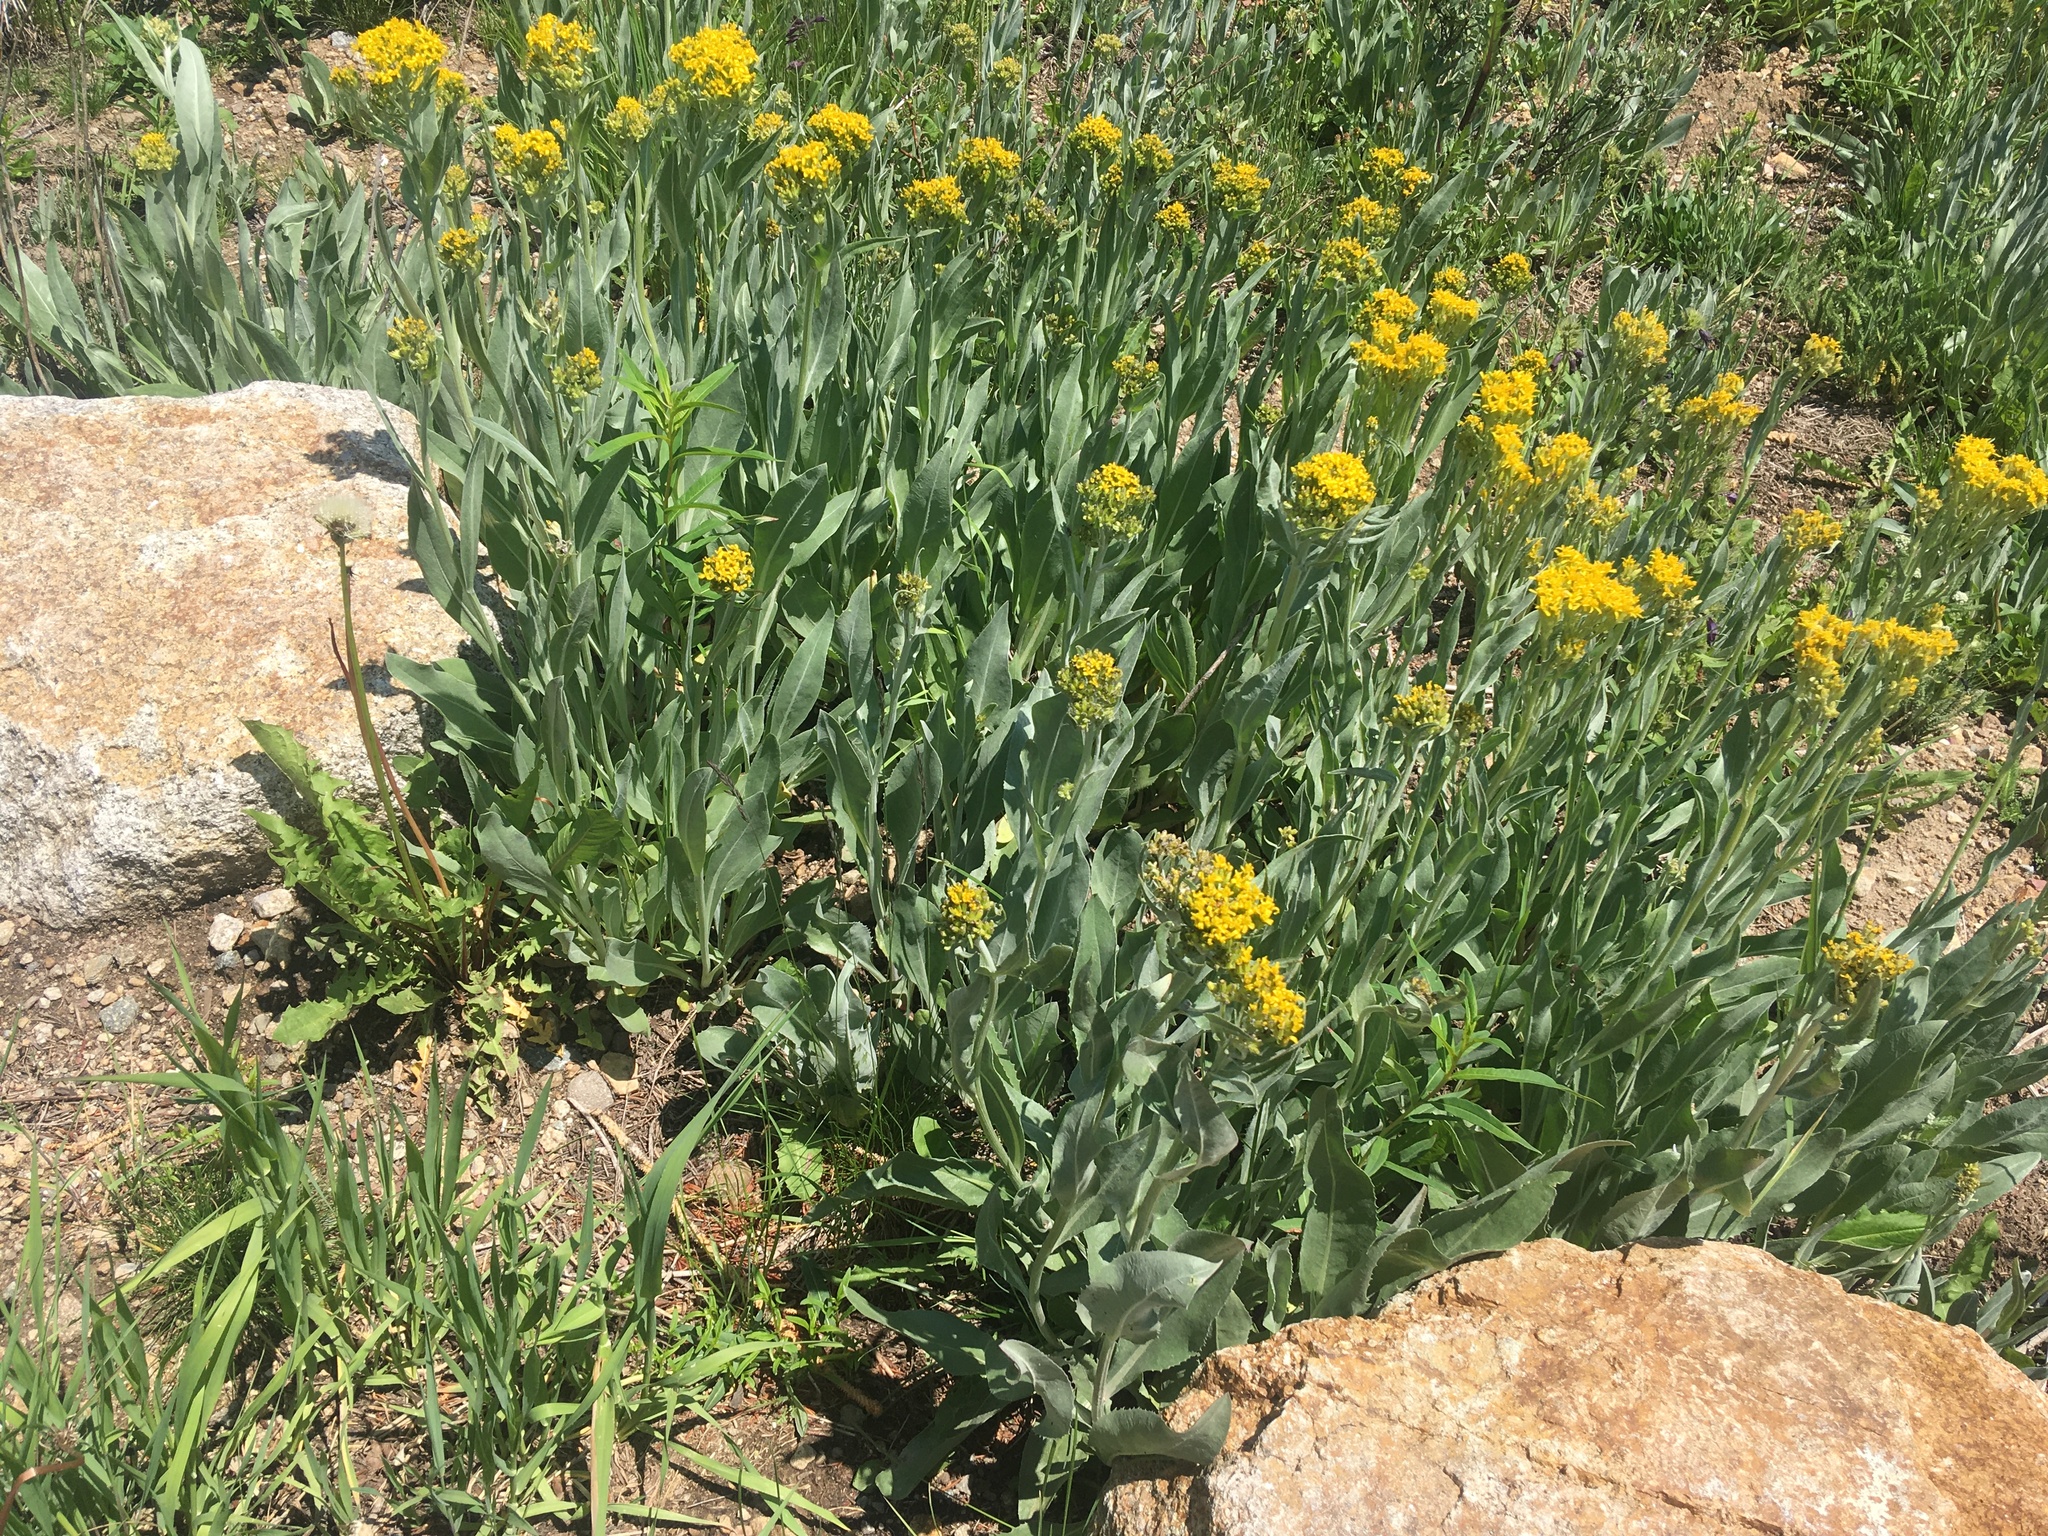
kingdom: Plantae
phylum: Tracheophyta
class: Magnoliopsida
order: Asterales
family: Asteraceae
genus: Senecio
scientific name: Senecio atratus
